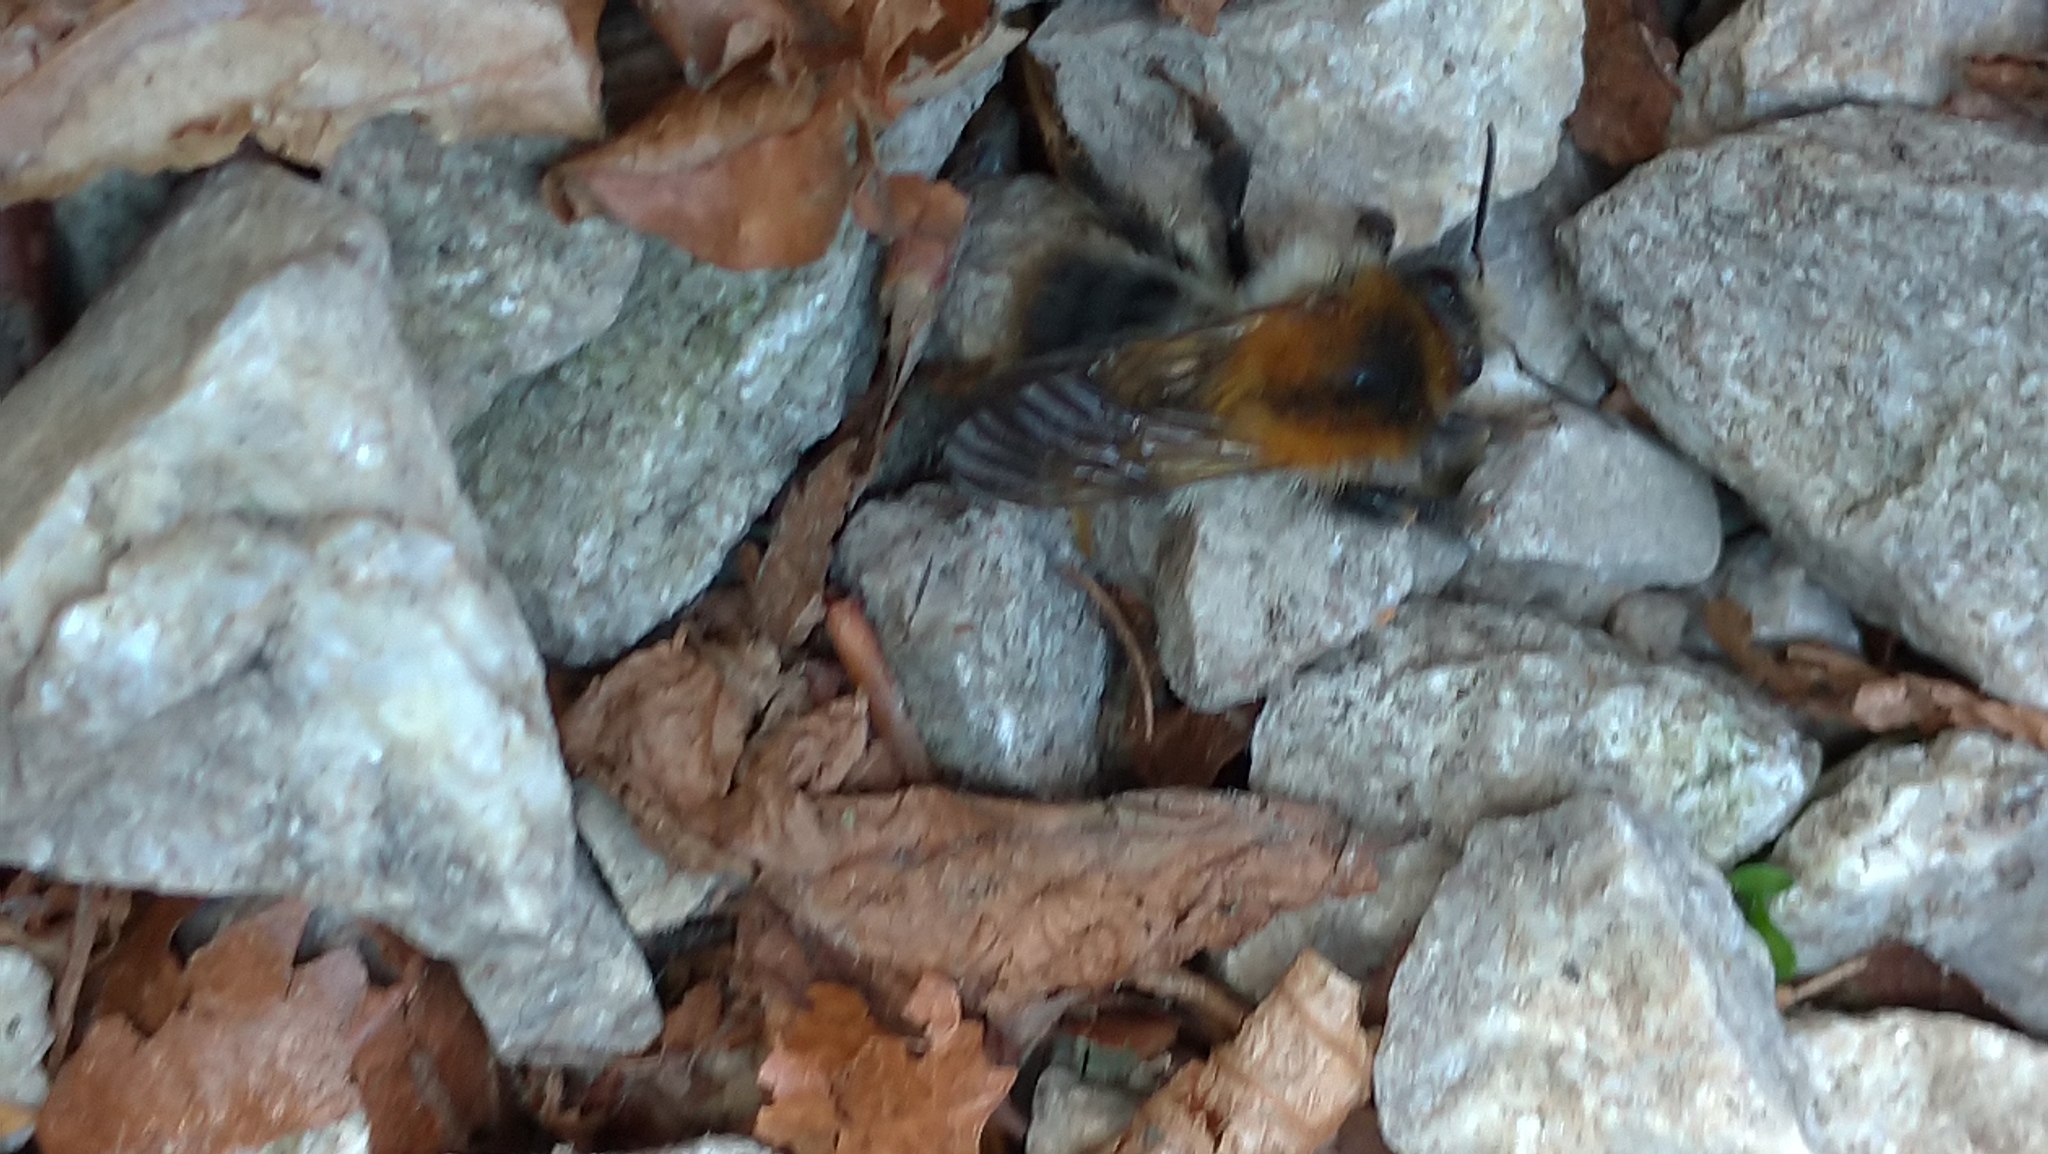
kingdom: Animalia
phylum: Arthropoda
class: Insecta
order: Hymenoptera
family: Apidae
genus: Bombus
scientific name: Bombus pascuorum
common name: Common carder bee
